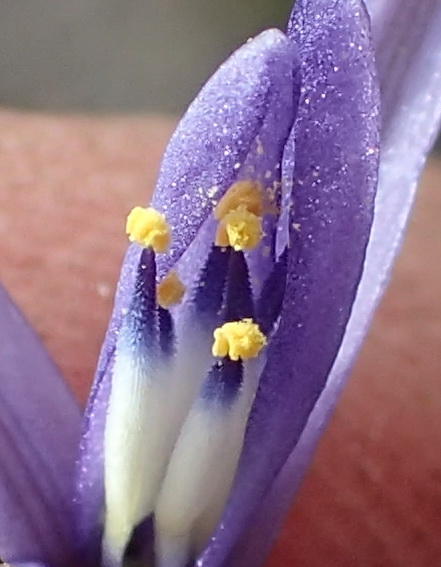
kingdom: Plantae
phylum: Tracheophyta
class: Liliopsida
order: Asparagales
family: Asphodelaceae
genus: Caesia
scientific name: Caesia contorta
